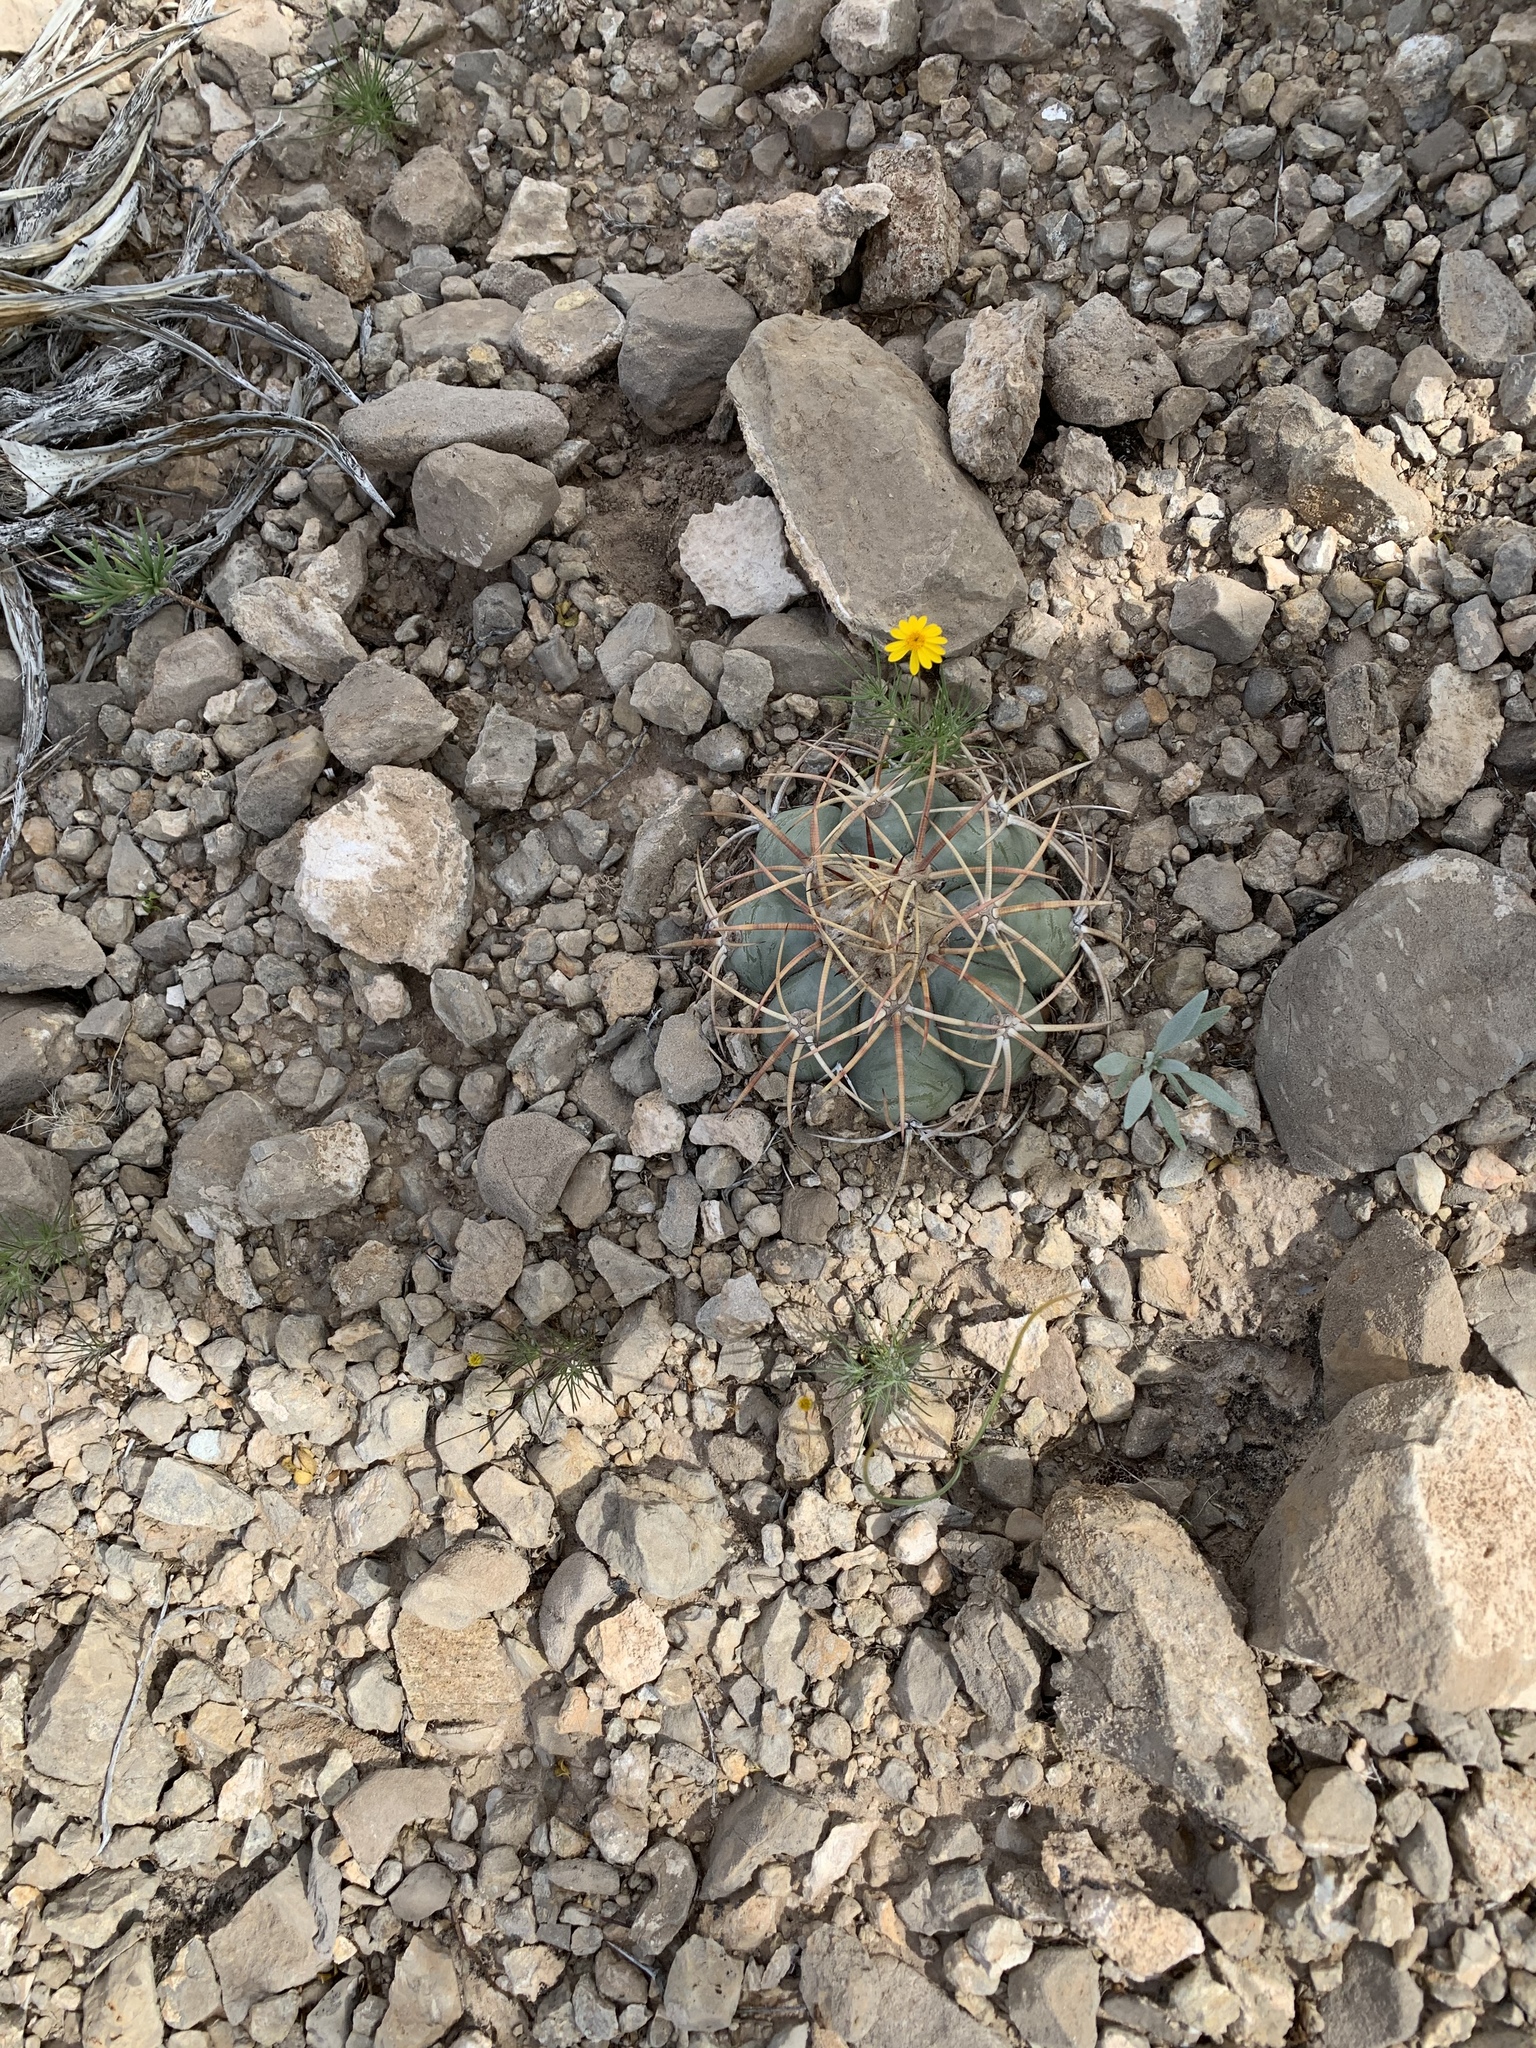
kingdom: Plantae
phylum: Tracheophyta
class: Magnoliopsida
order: Caryophyllales
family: Cactaceae
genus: Echinocactus
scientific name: Echinocactus horizonthalonius
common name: Devilshead
